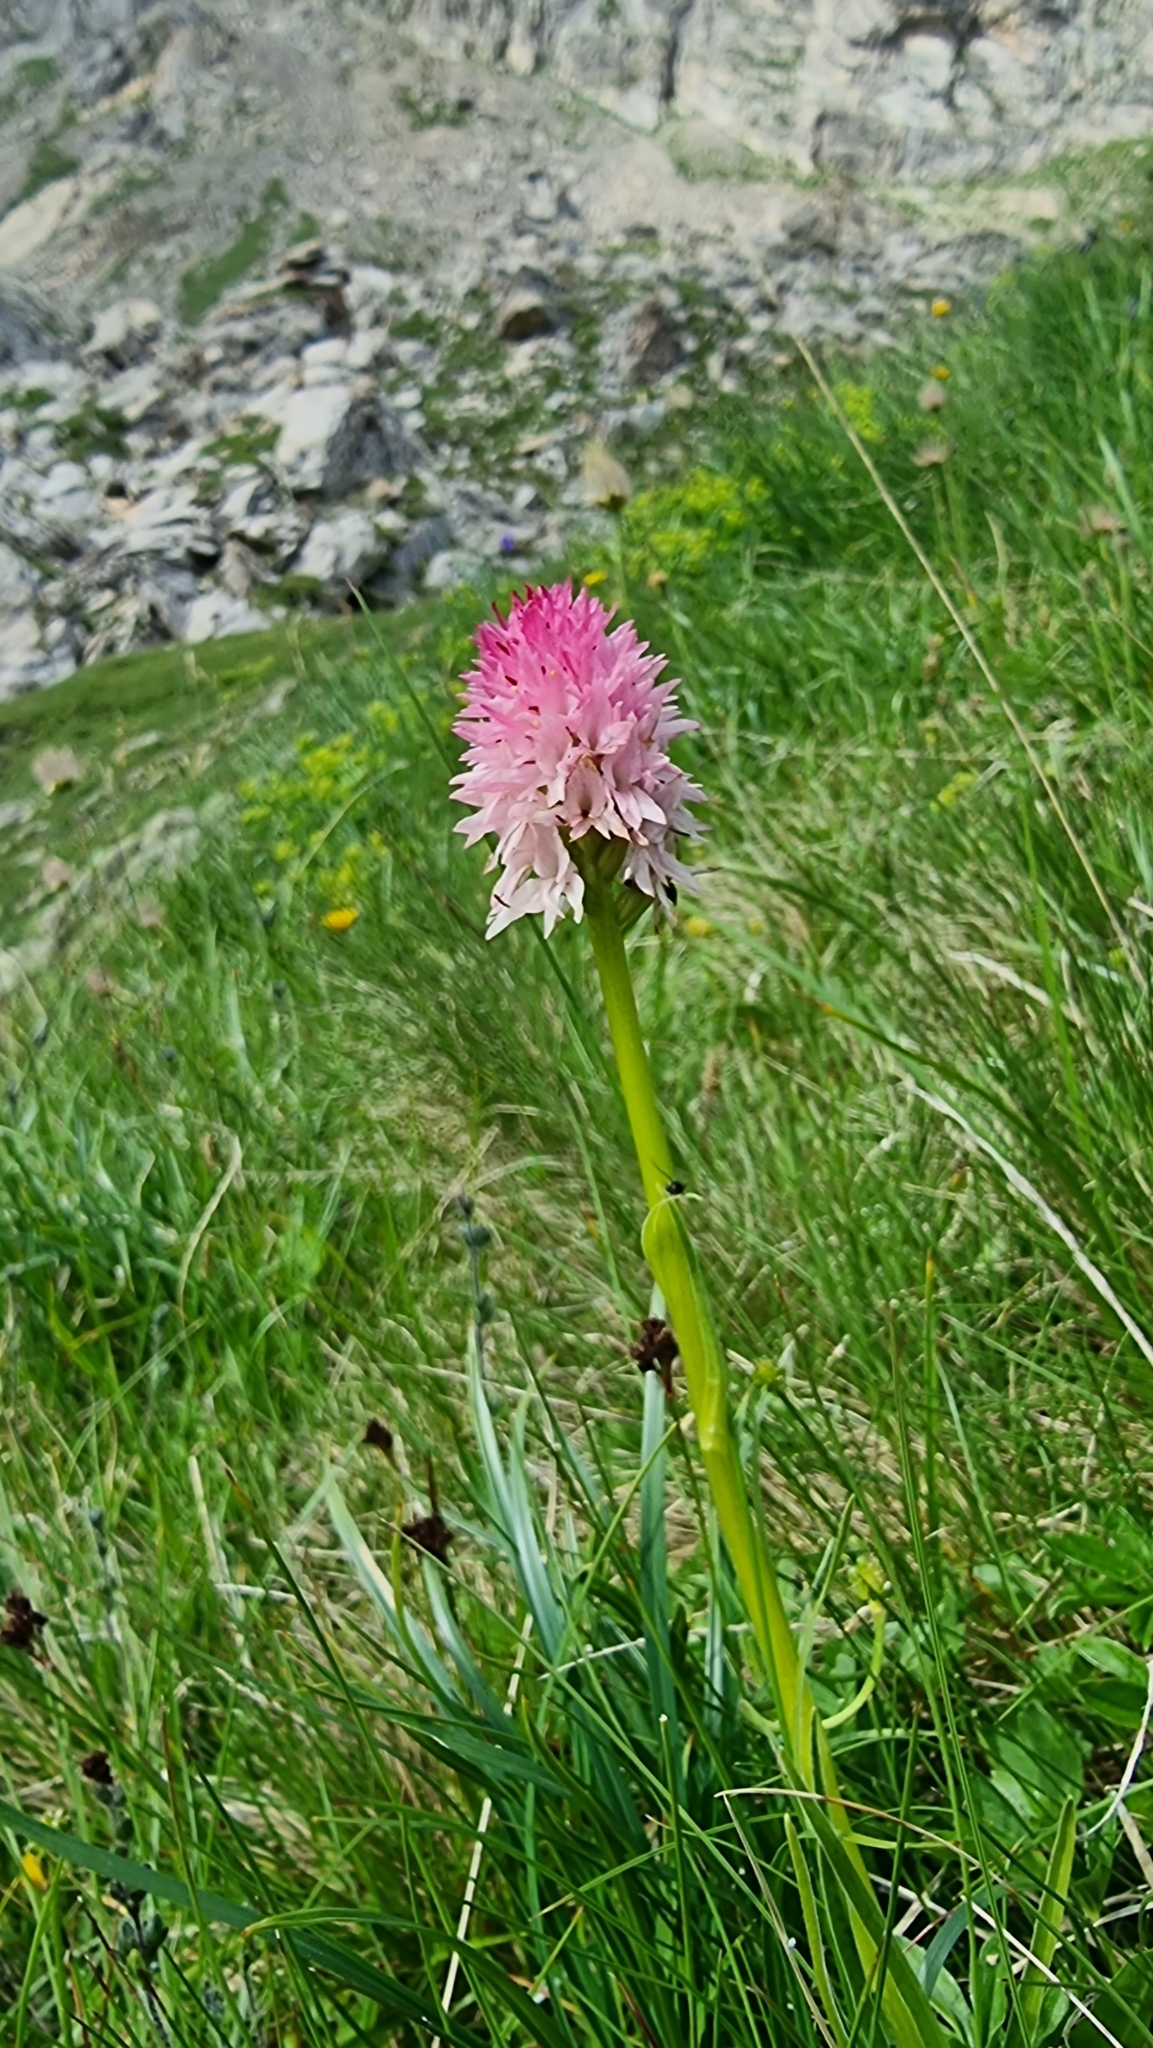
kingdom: Plantae
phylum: Tracheophyta
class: Liliopsida
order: Asparagales
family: Orchidaceae
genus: Gymnadenia
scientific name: Gymnadenia corneliana
